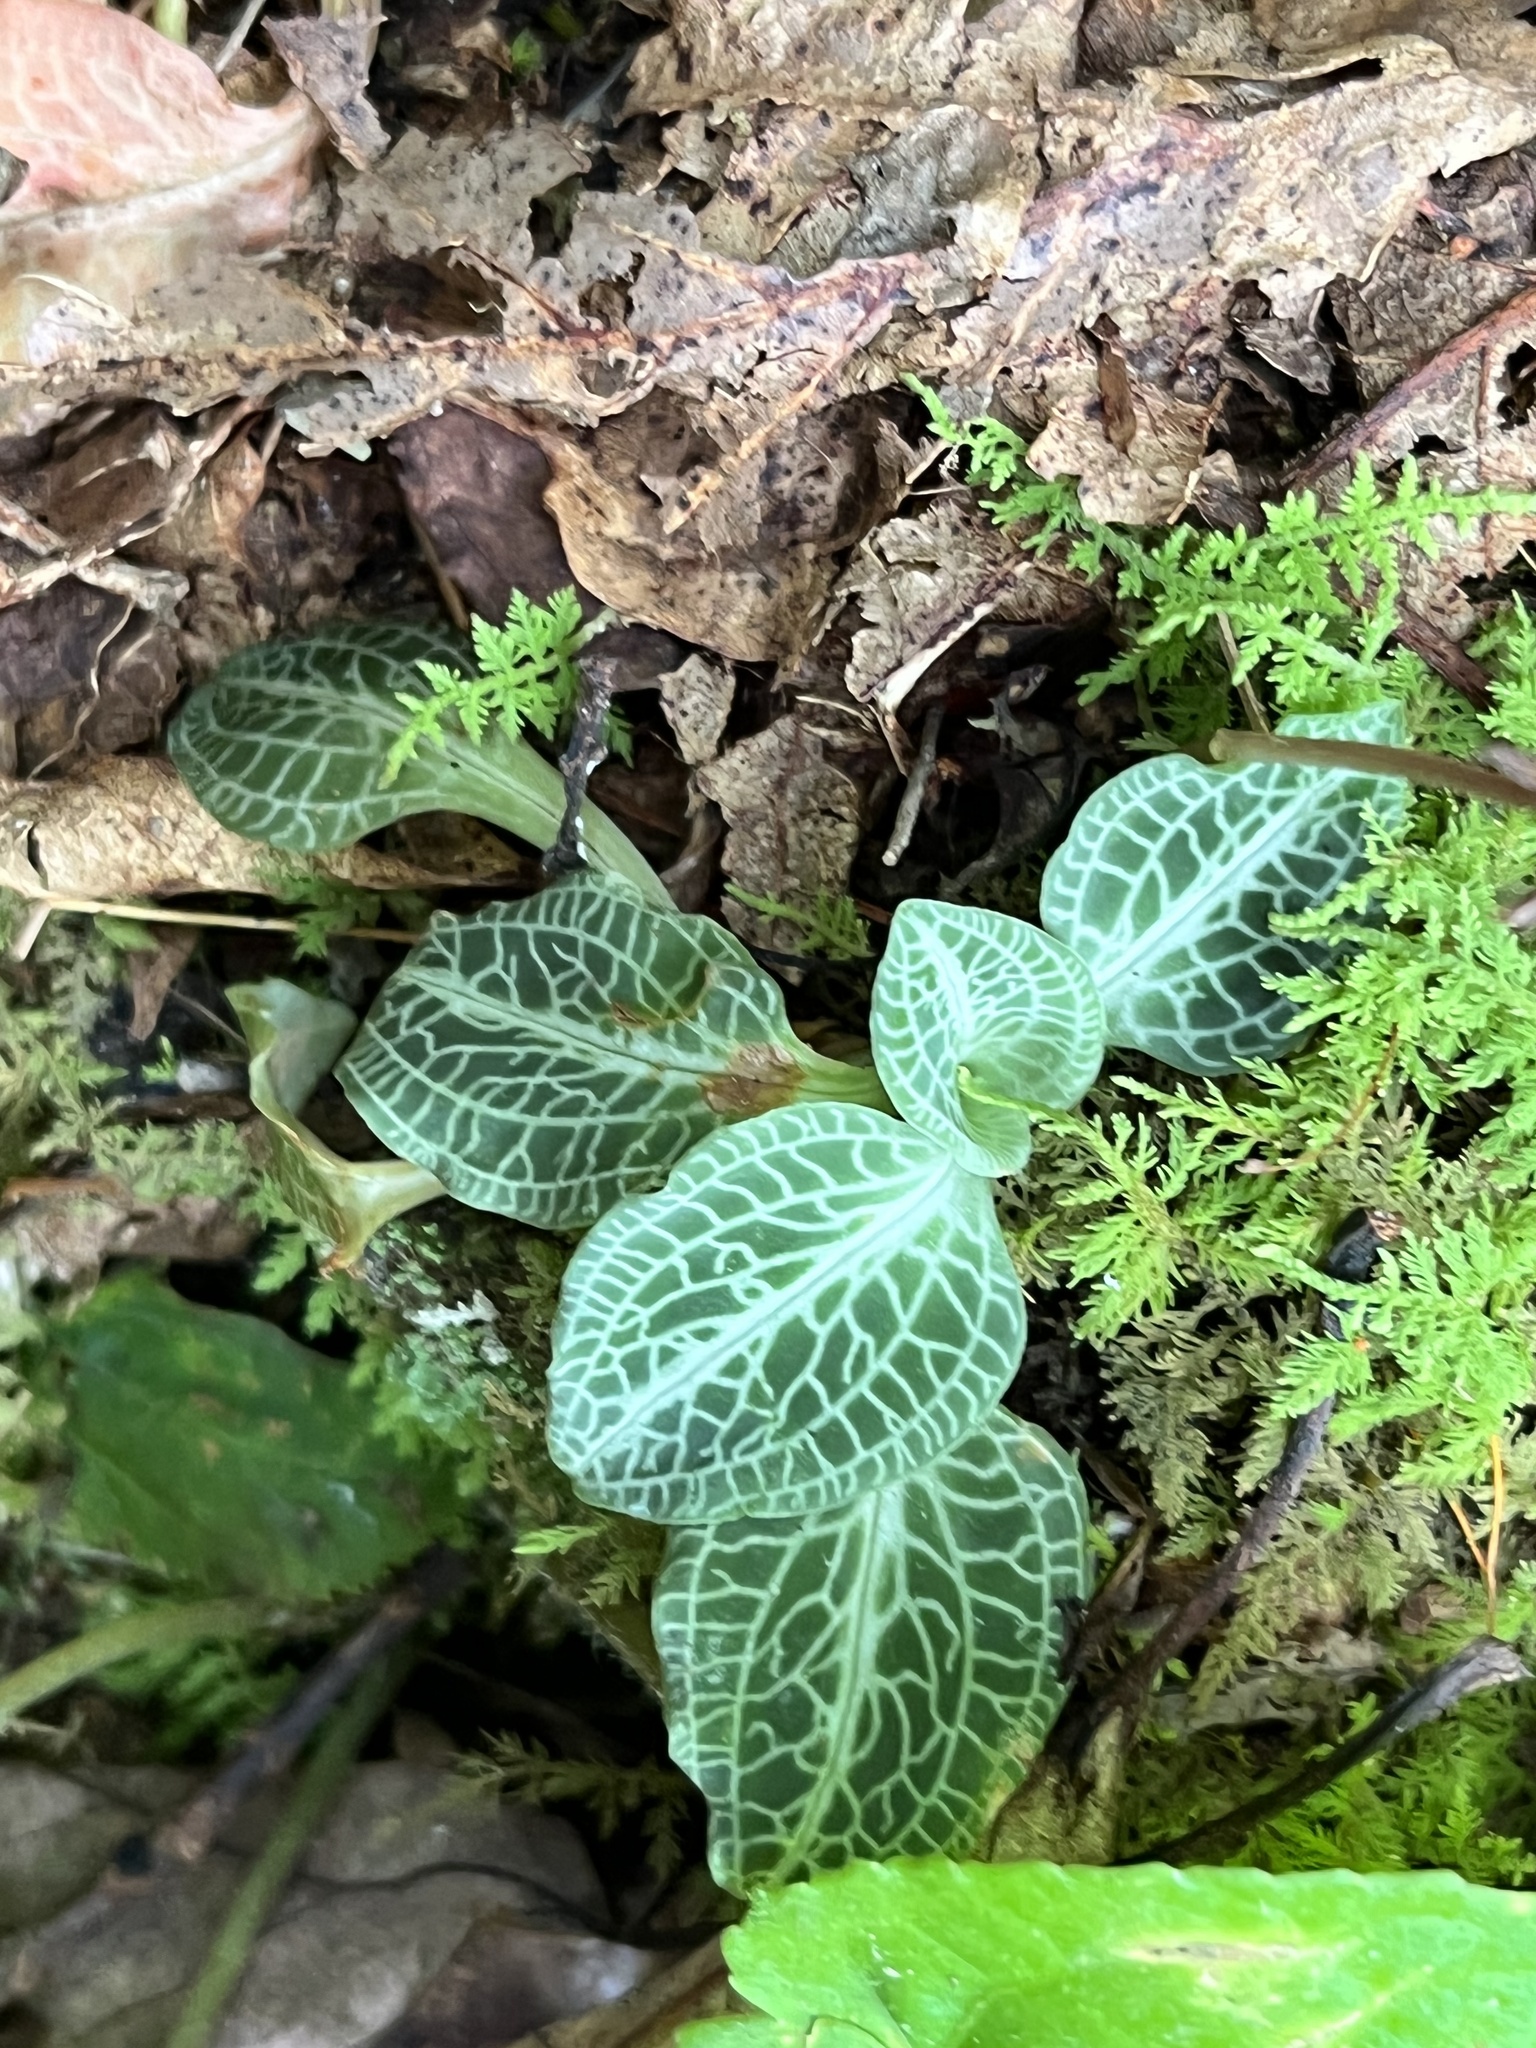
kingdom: Plantae
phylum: Tracheophyta
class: Liliopsida
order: Asparagales
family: Orchidaceae
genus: Goodyera
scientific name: Goodyera pubescens
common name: Downy rattlesnake-plantain
